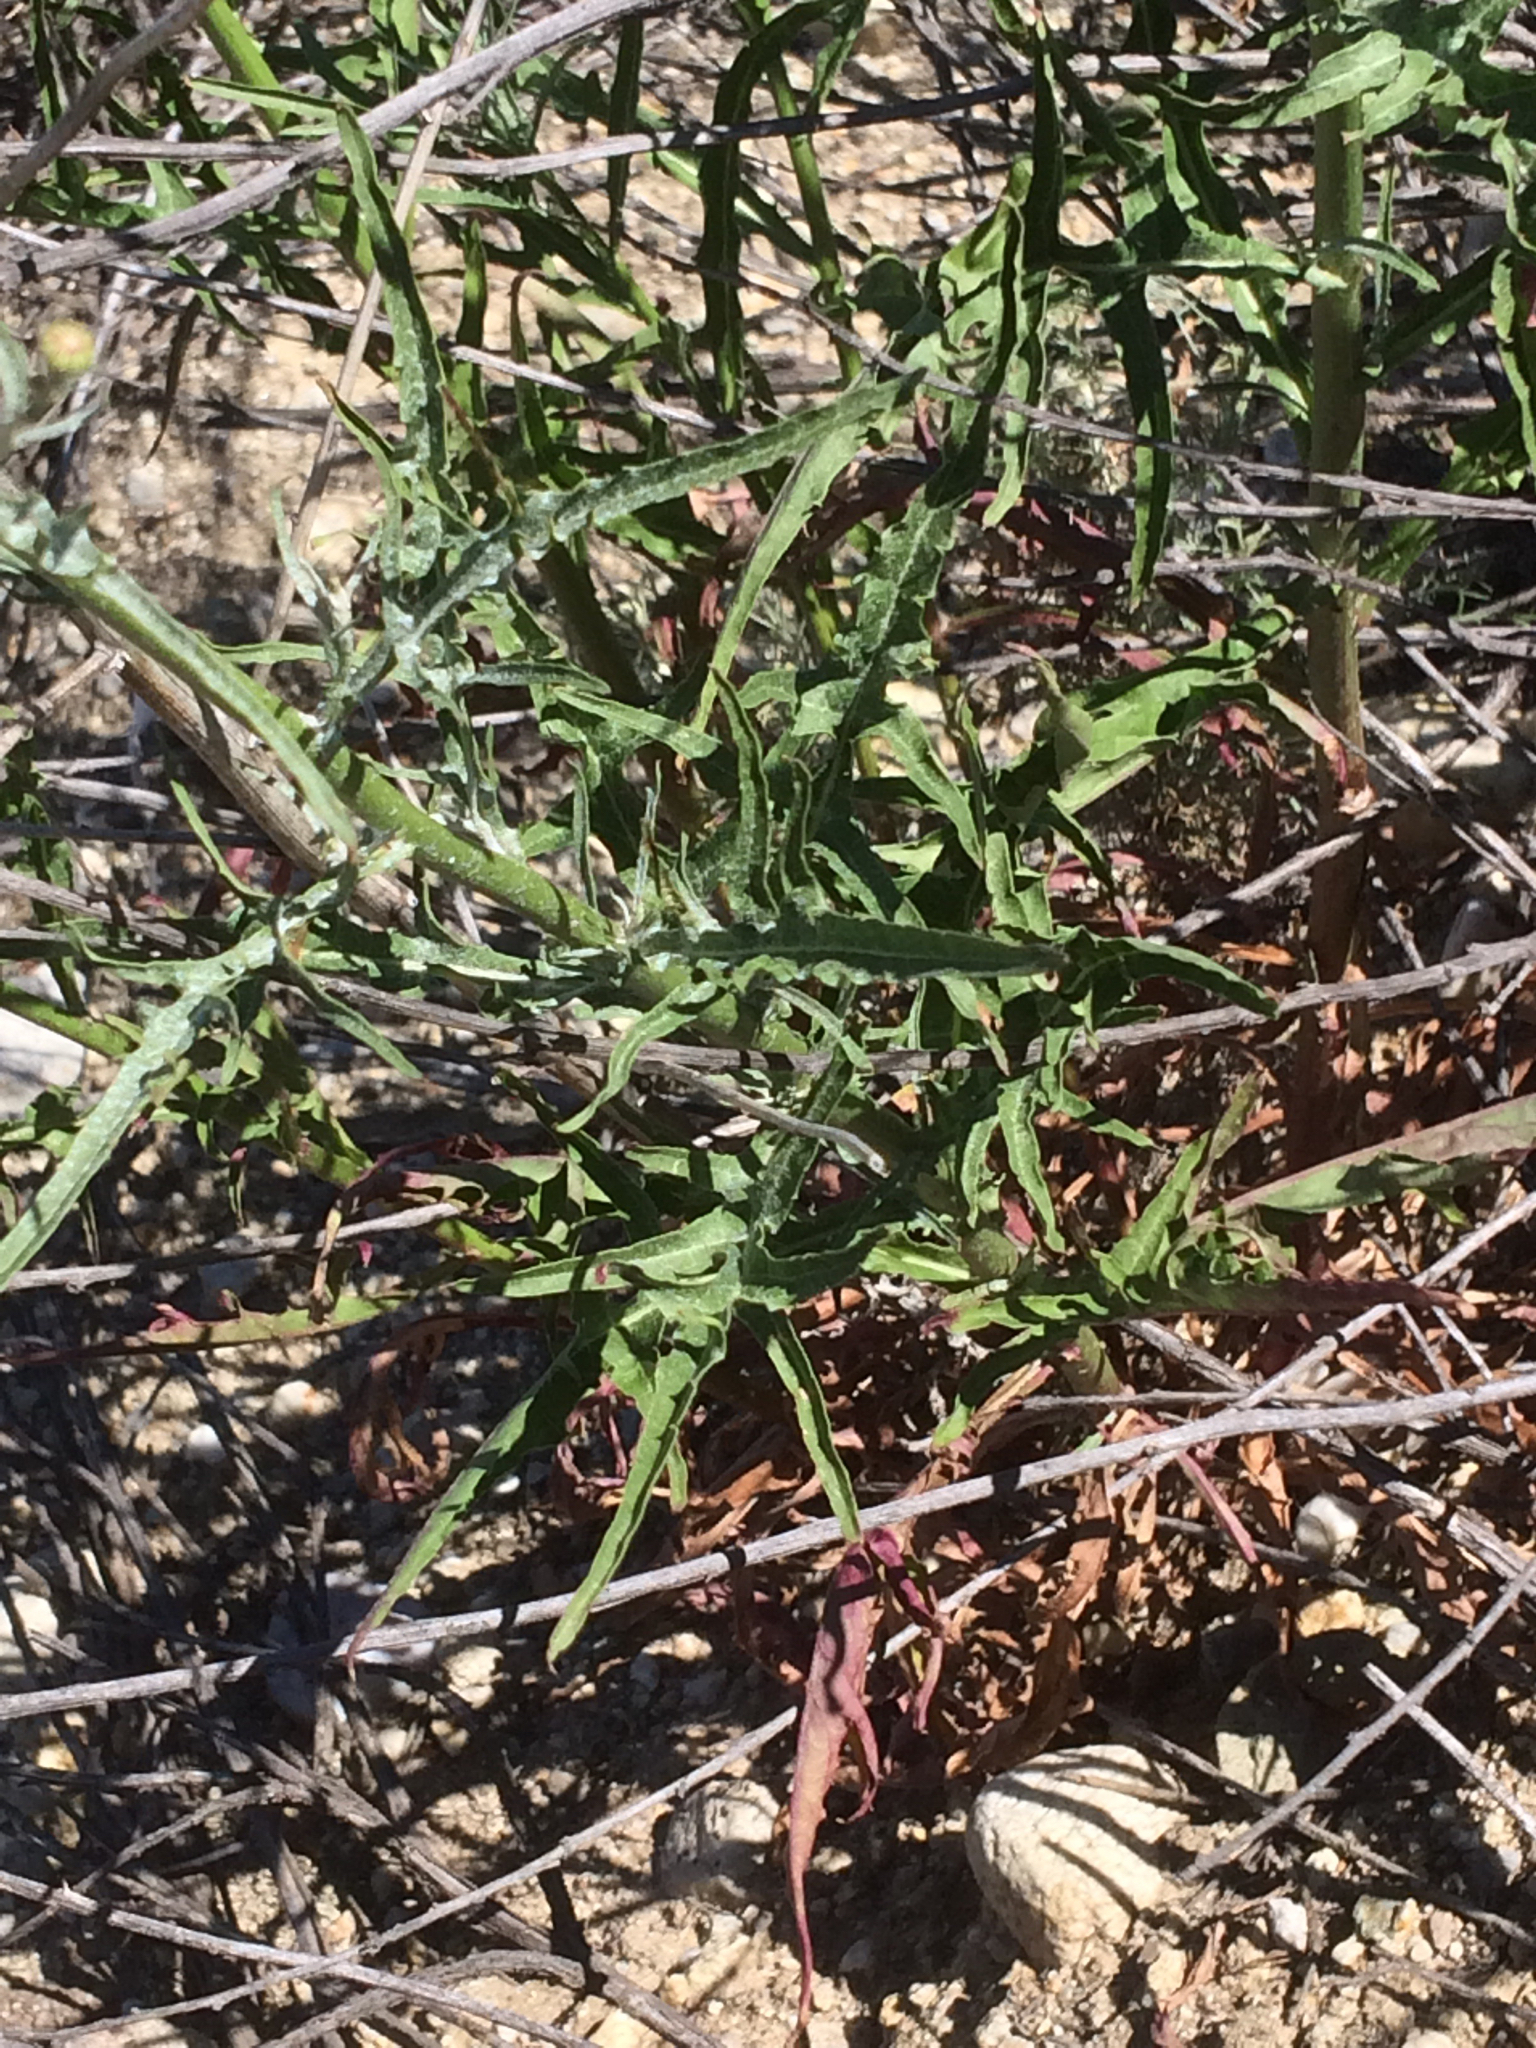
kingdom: Plantae
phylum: Tracheophyta
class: Magnoliopsida
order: Asterales
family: Asteraceae
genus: Malacothrix
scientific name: Malacothrix saxatilis
